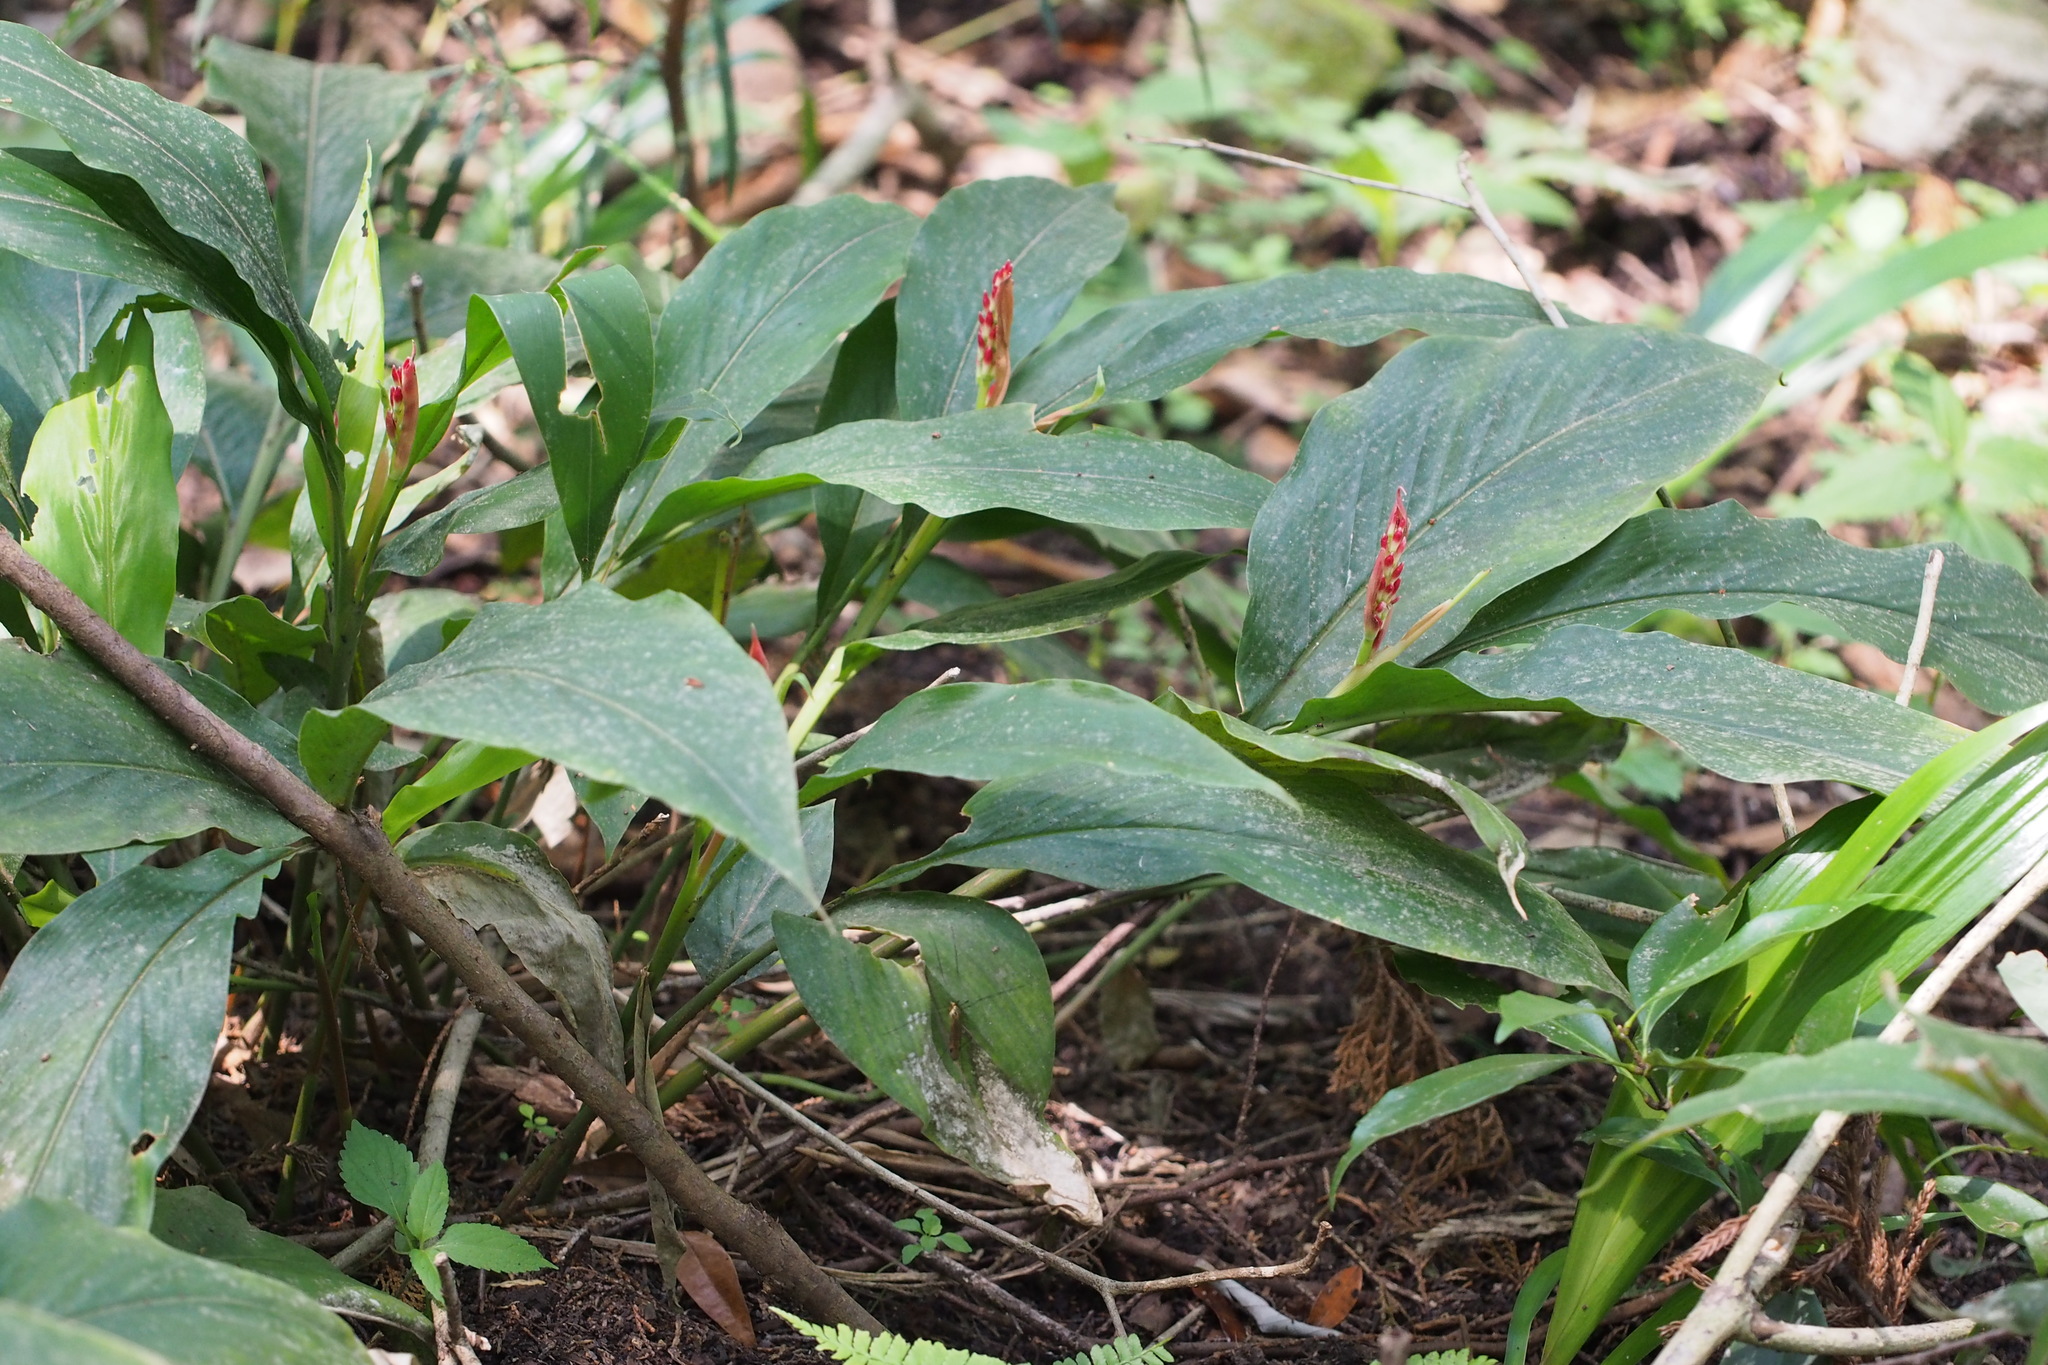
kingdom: Plantae
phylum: Tracheophyta
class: Liliopsida
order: Zingiberales
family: Zingiberaceae
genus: Alpinia
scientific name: Alpinia japonica
